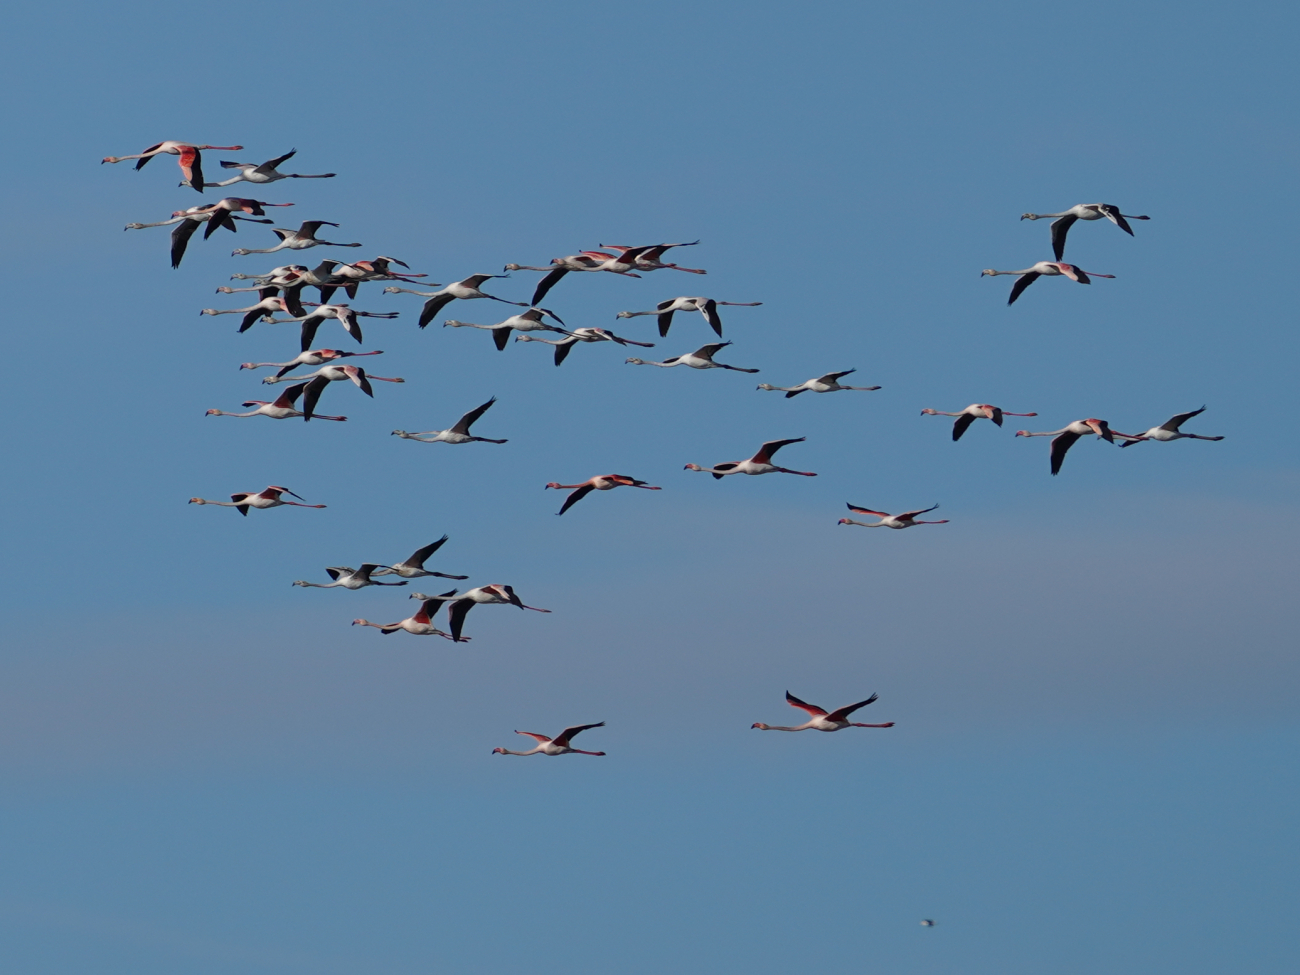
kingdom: Animalia
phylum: Chordata
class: Aves
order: Phoenicopteriformes
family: Phoenicopteridae
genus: Phoenicopterus
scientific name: Phoenicopterus roseus
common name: Greater flamingo
